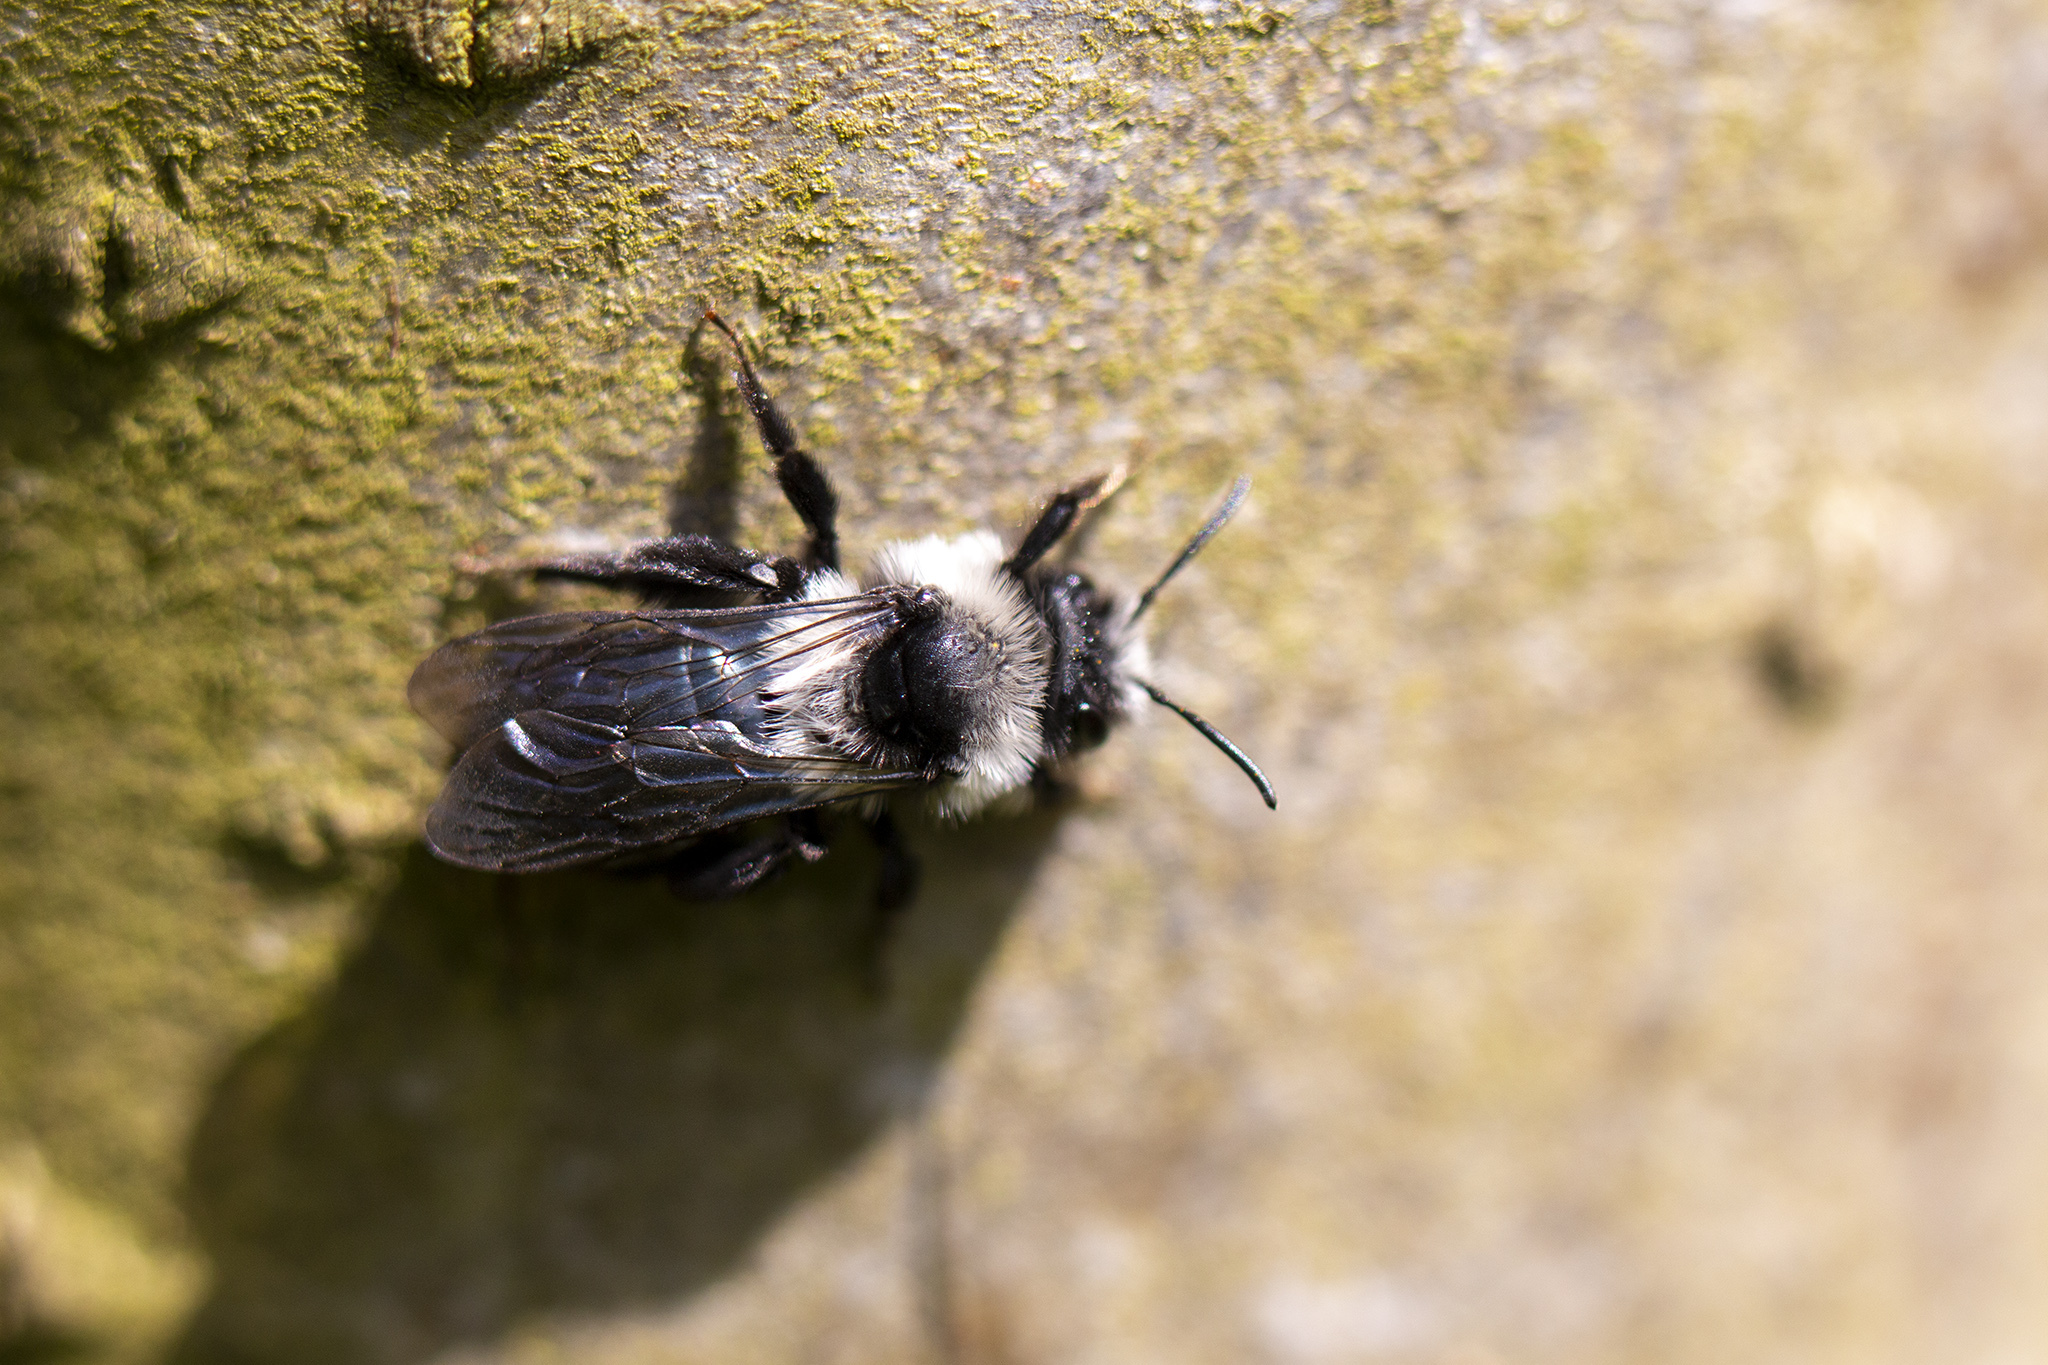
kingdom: Animalia
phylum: Arthropoda
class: Insecta
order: Hymenoptera
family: Andrenidae
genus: Andrena
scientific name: Andrena cineraria
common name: Ashy mining bee
